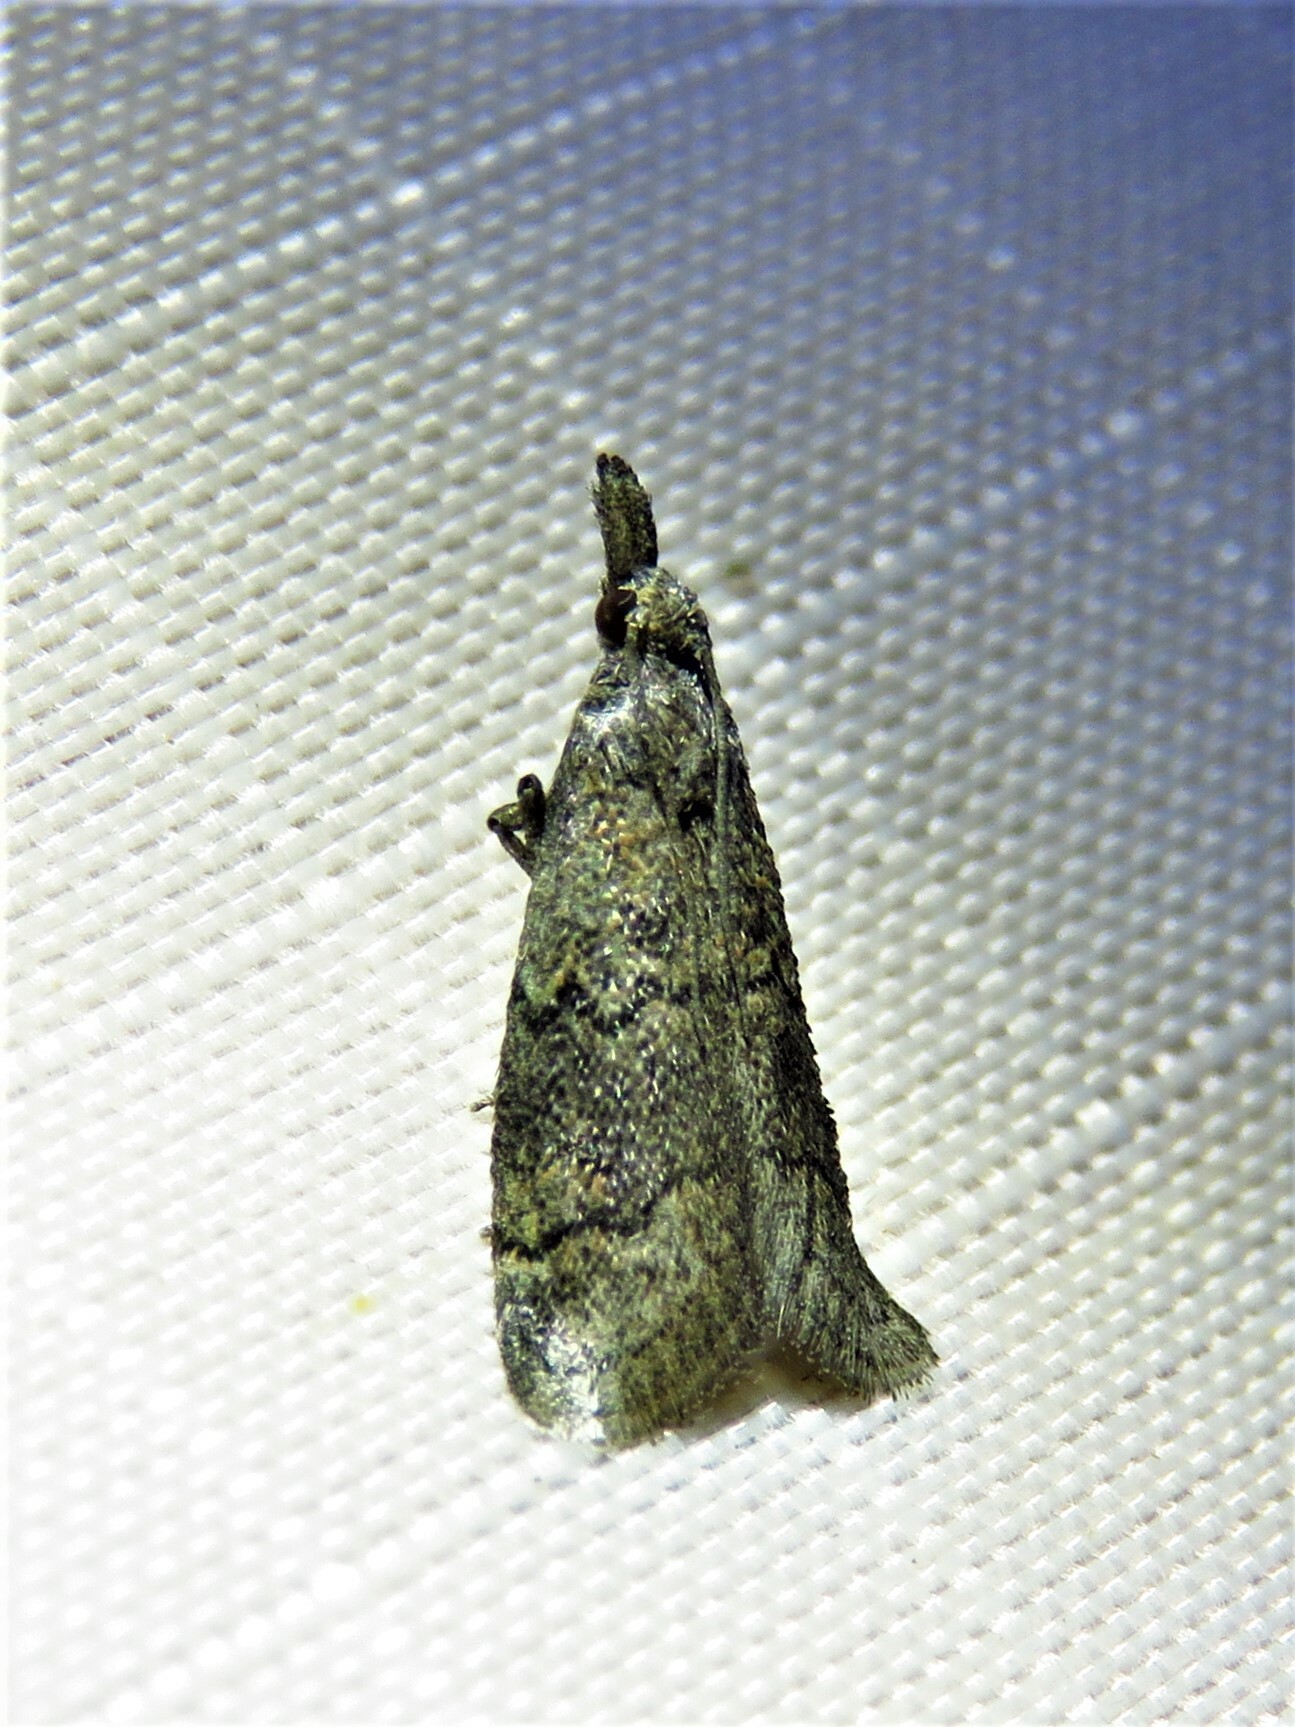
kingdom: Animalia
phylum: Arthropoda
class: Insecta
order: Lepidoptera
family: Pyralidae
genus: Cacotherapia
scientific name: Cacotherapia flexilinealis
